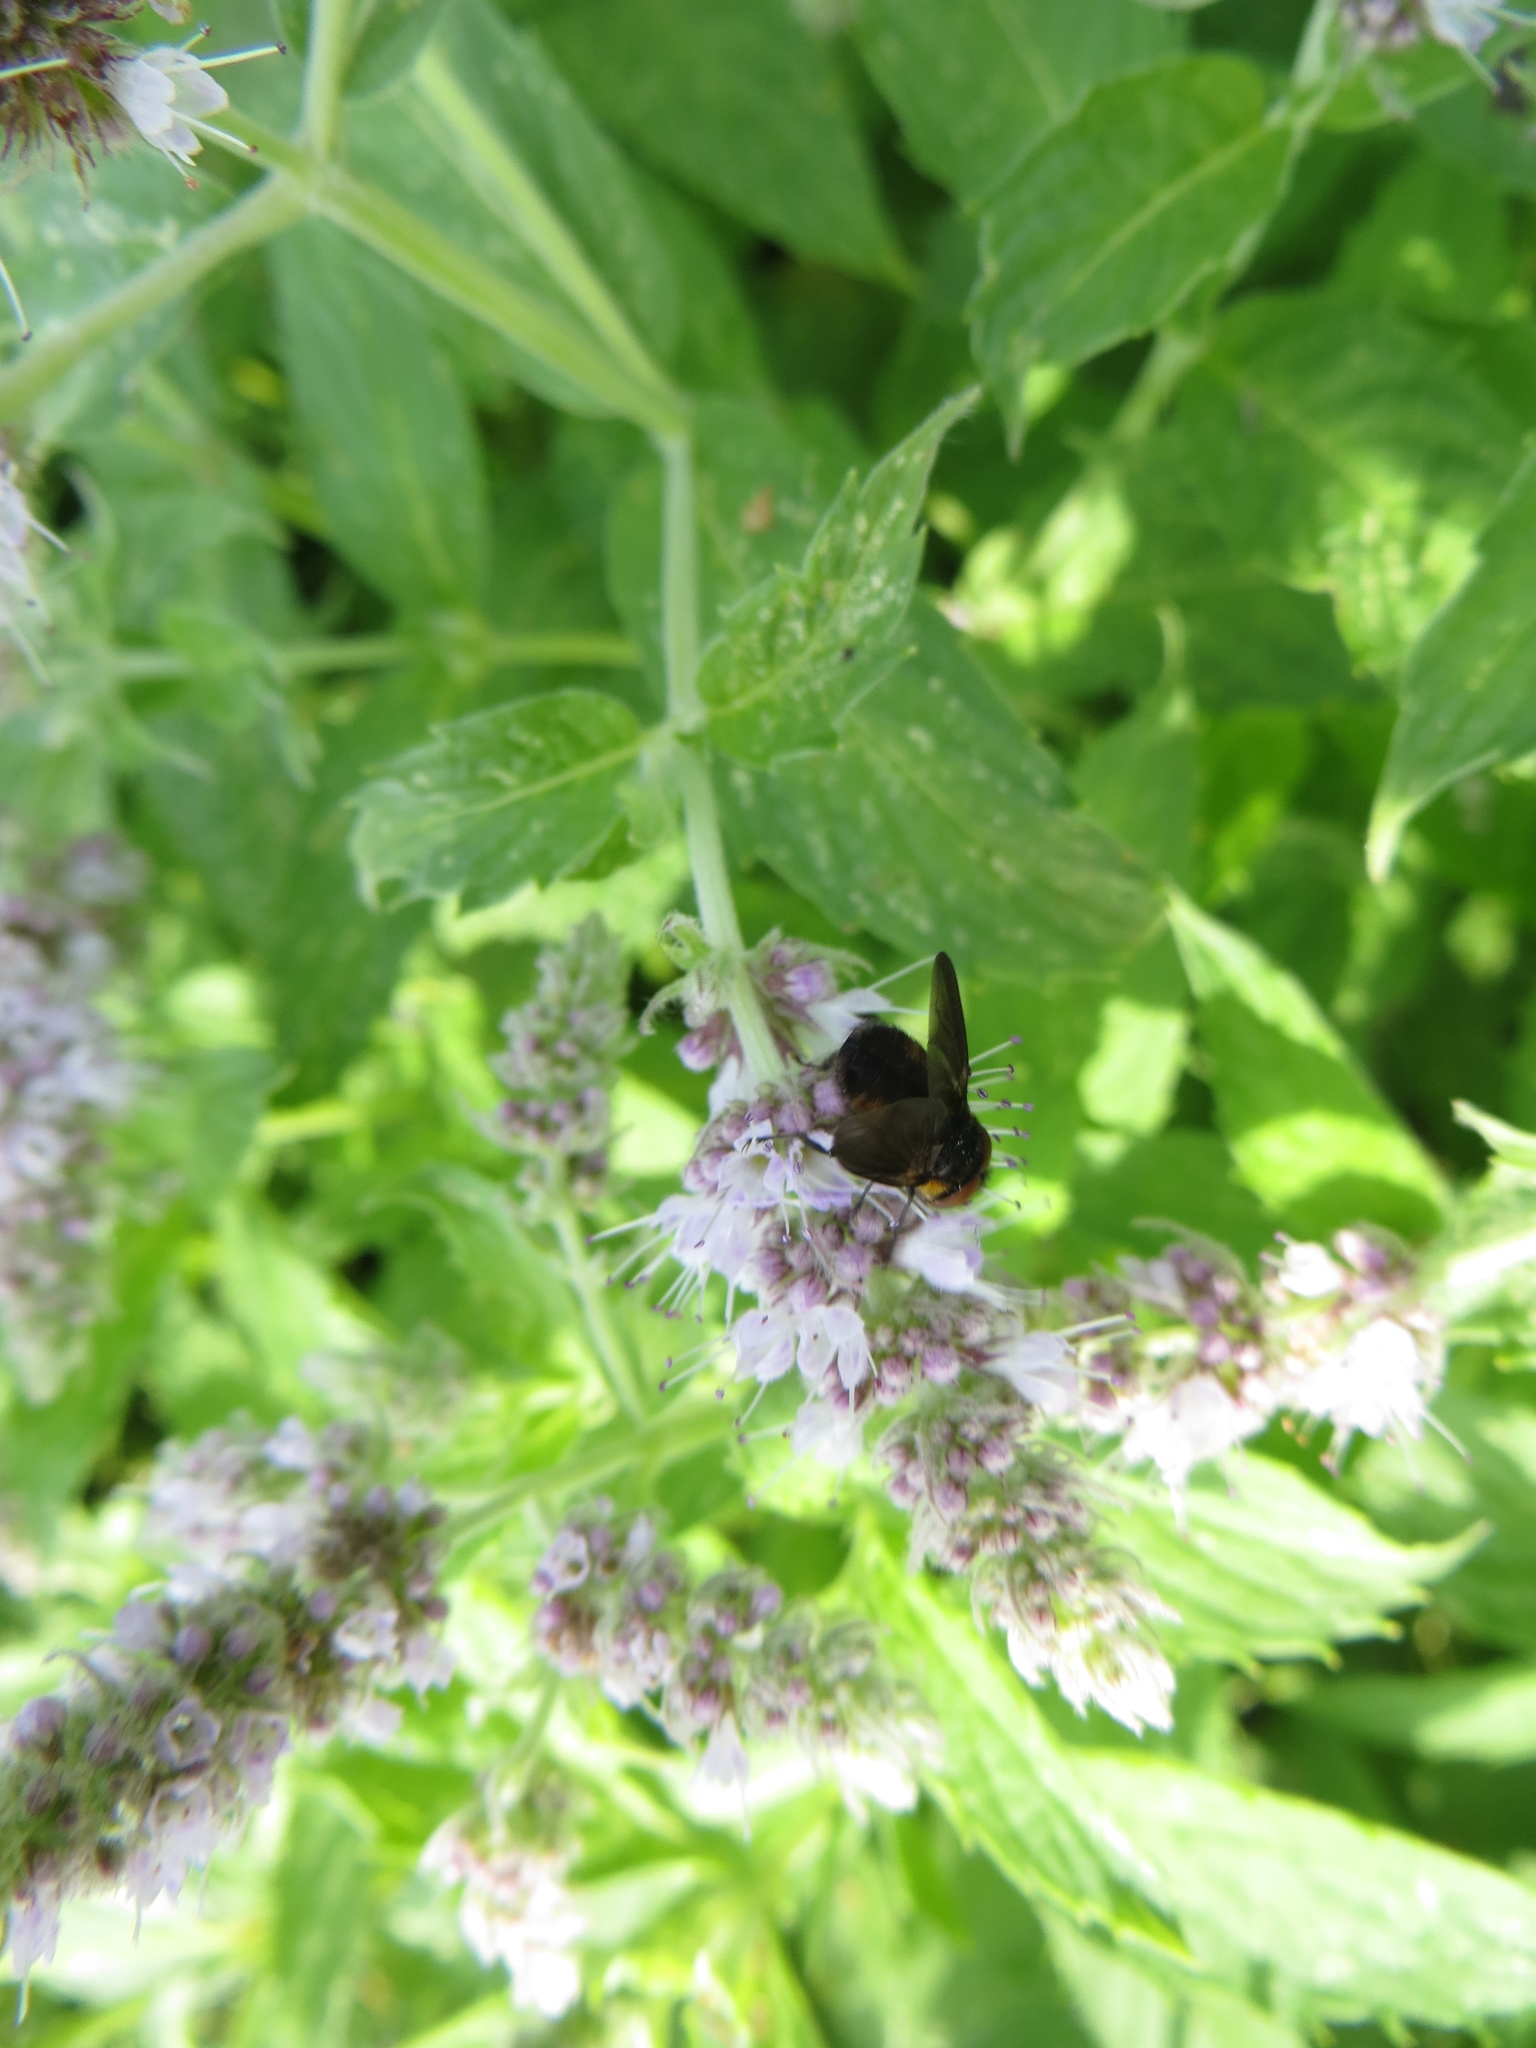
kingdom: Animalia
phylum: Arthropoda
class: Insecta
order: Diptera
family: Tachinidae
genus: Phasia
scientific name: Phasia hemiptera
